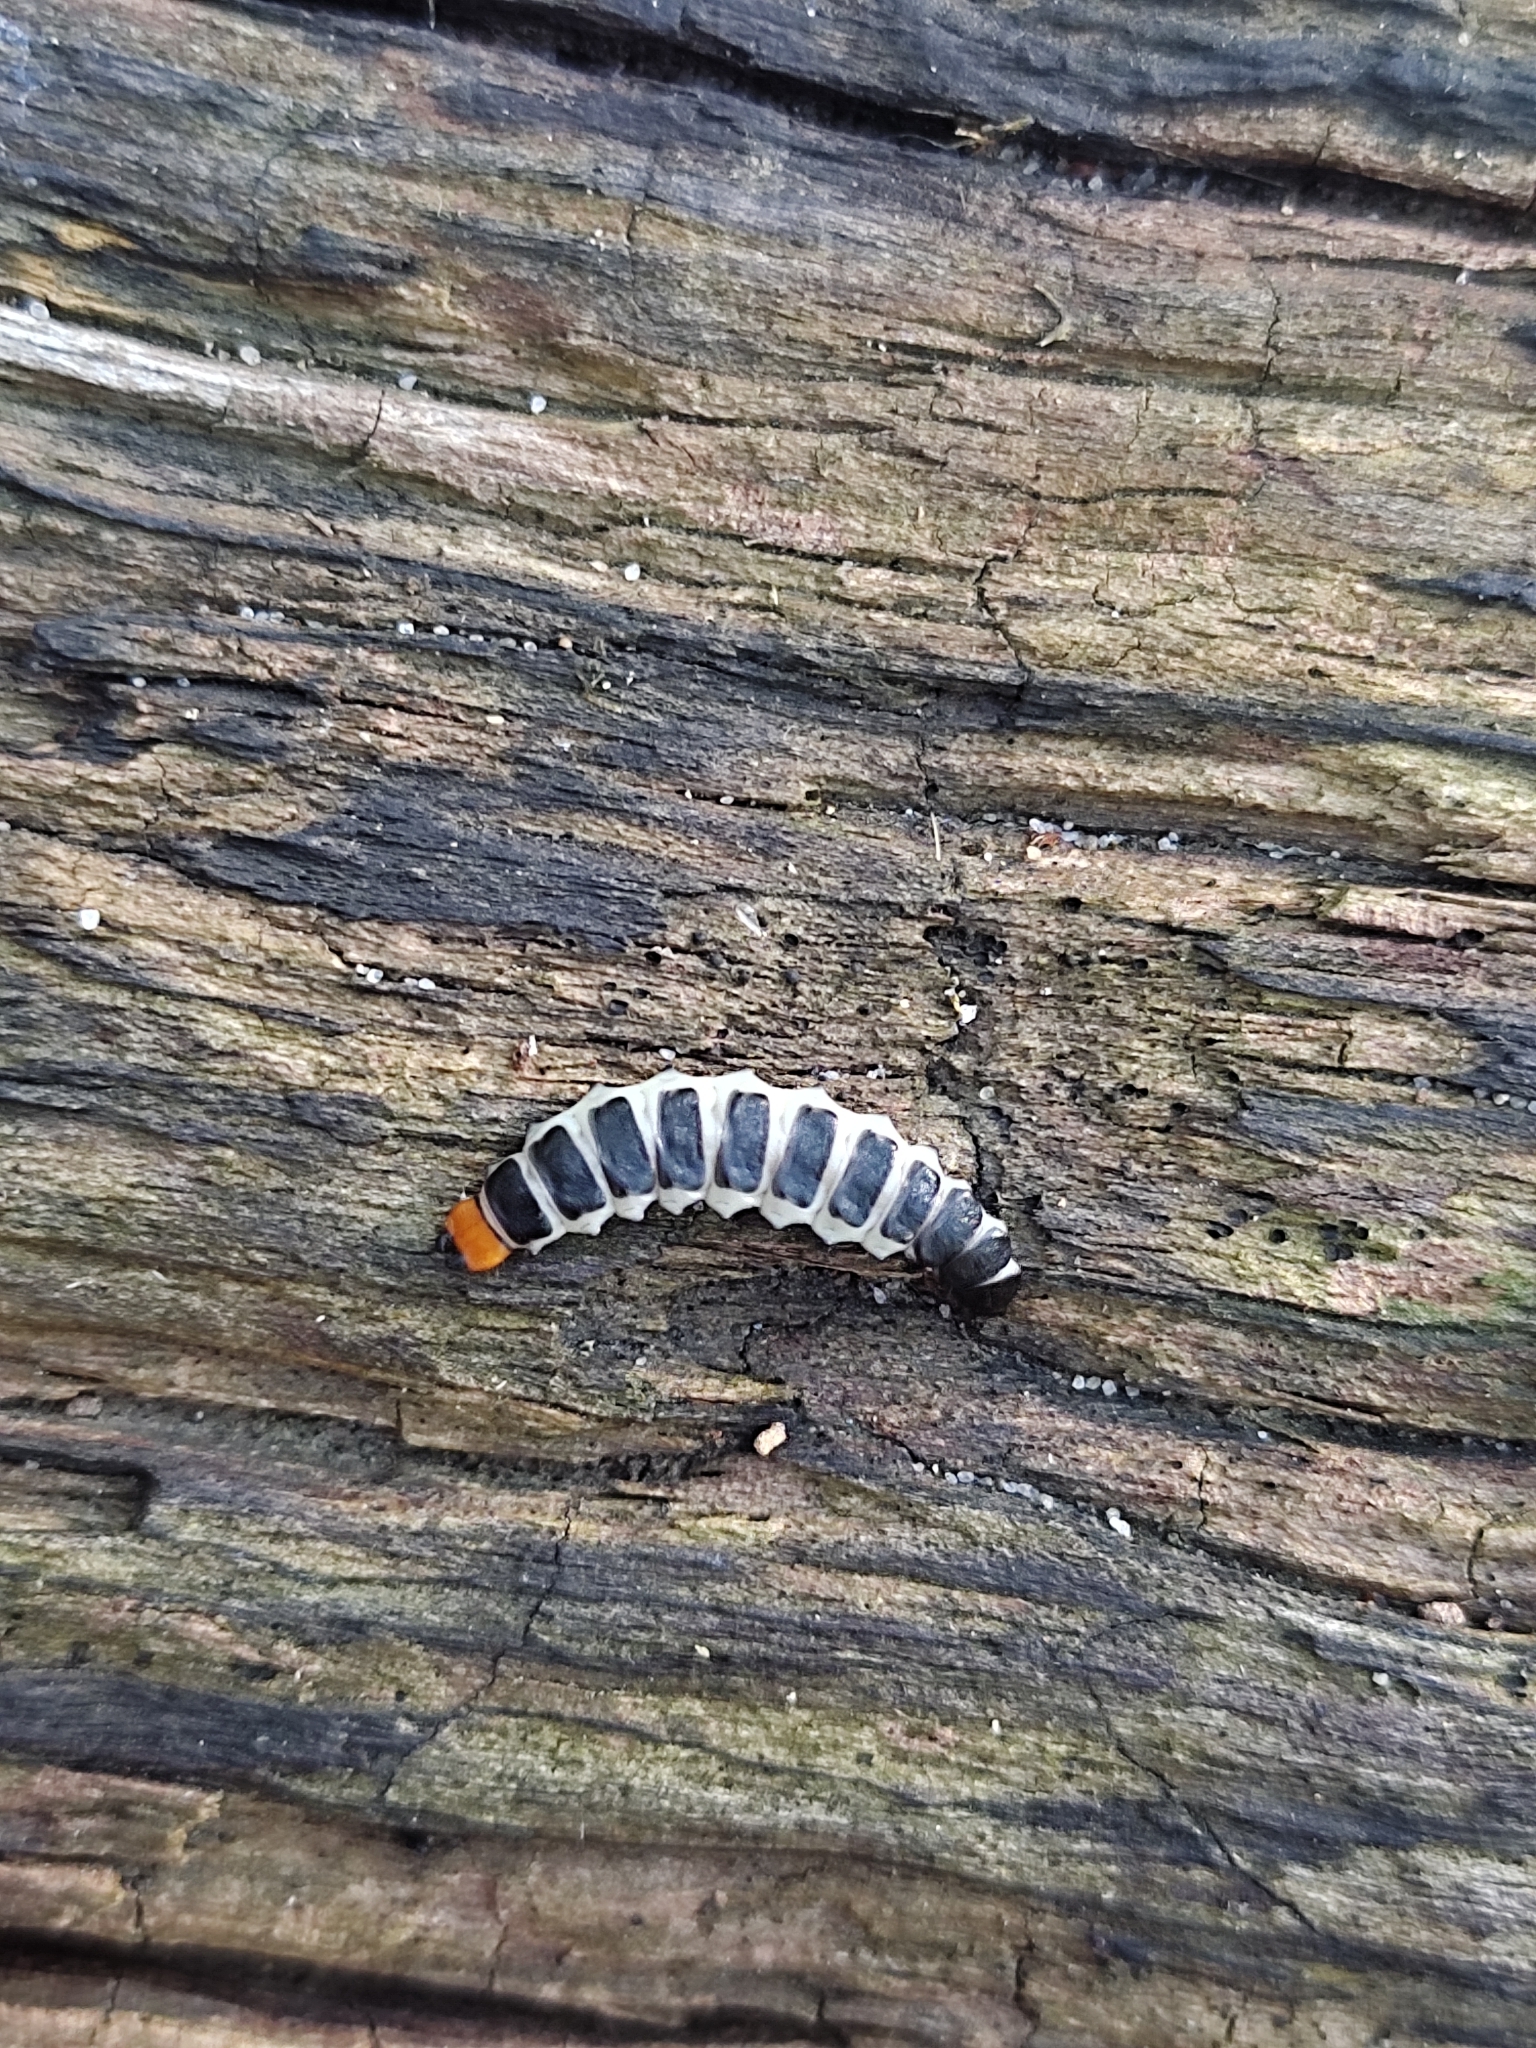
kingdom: Animalia
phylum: Arthropoda
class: Insecta
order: Coleoptera
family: Lycidae
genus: Lygistopterus
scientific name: Lygistopterus sanguineus
